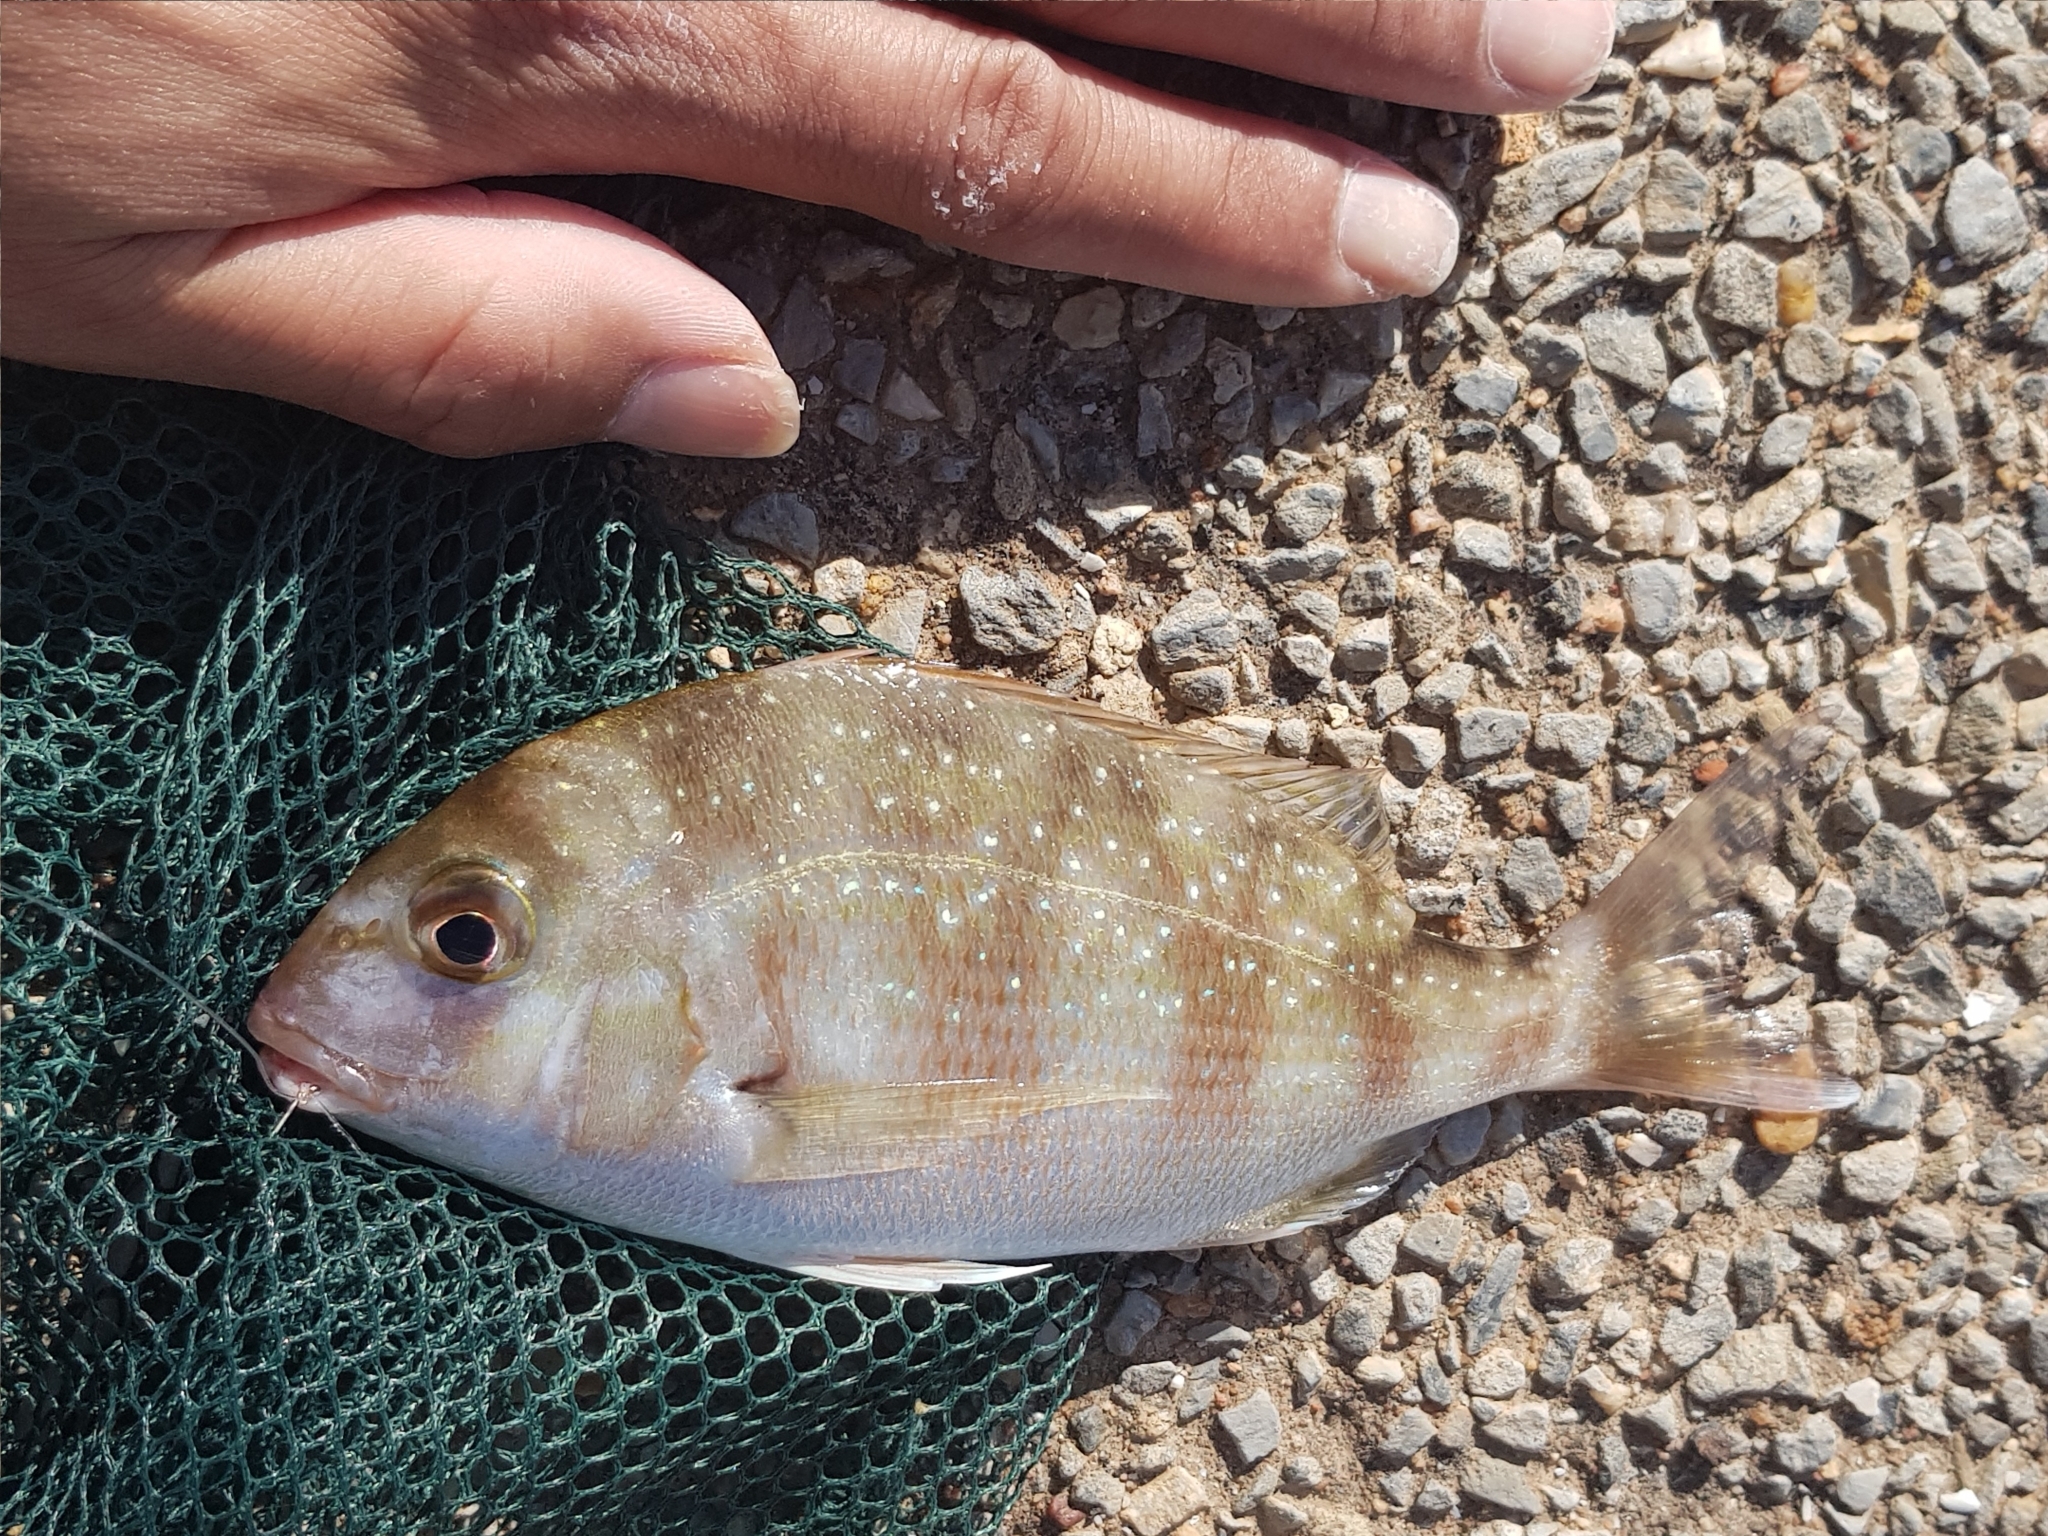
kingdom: Animalia
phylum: Chordata
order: Perciformes
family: Sparidae
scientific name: Sparidae
